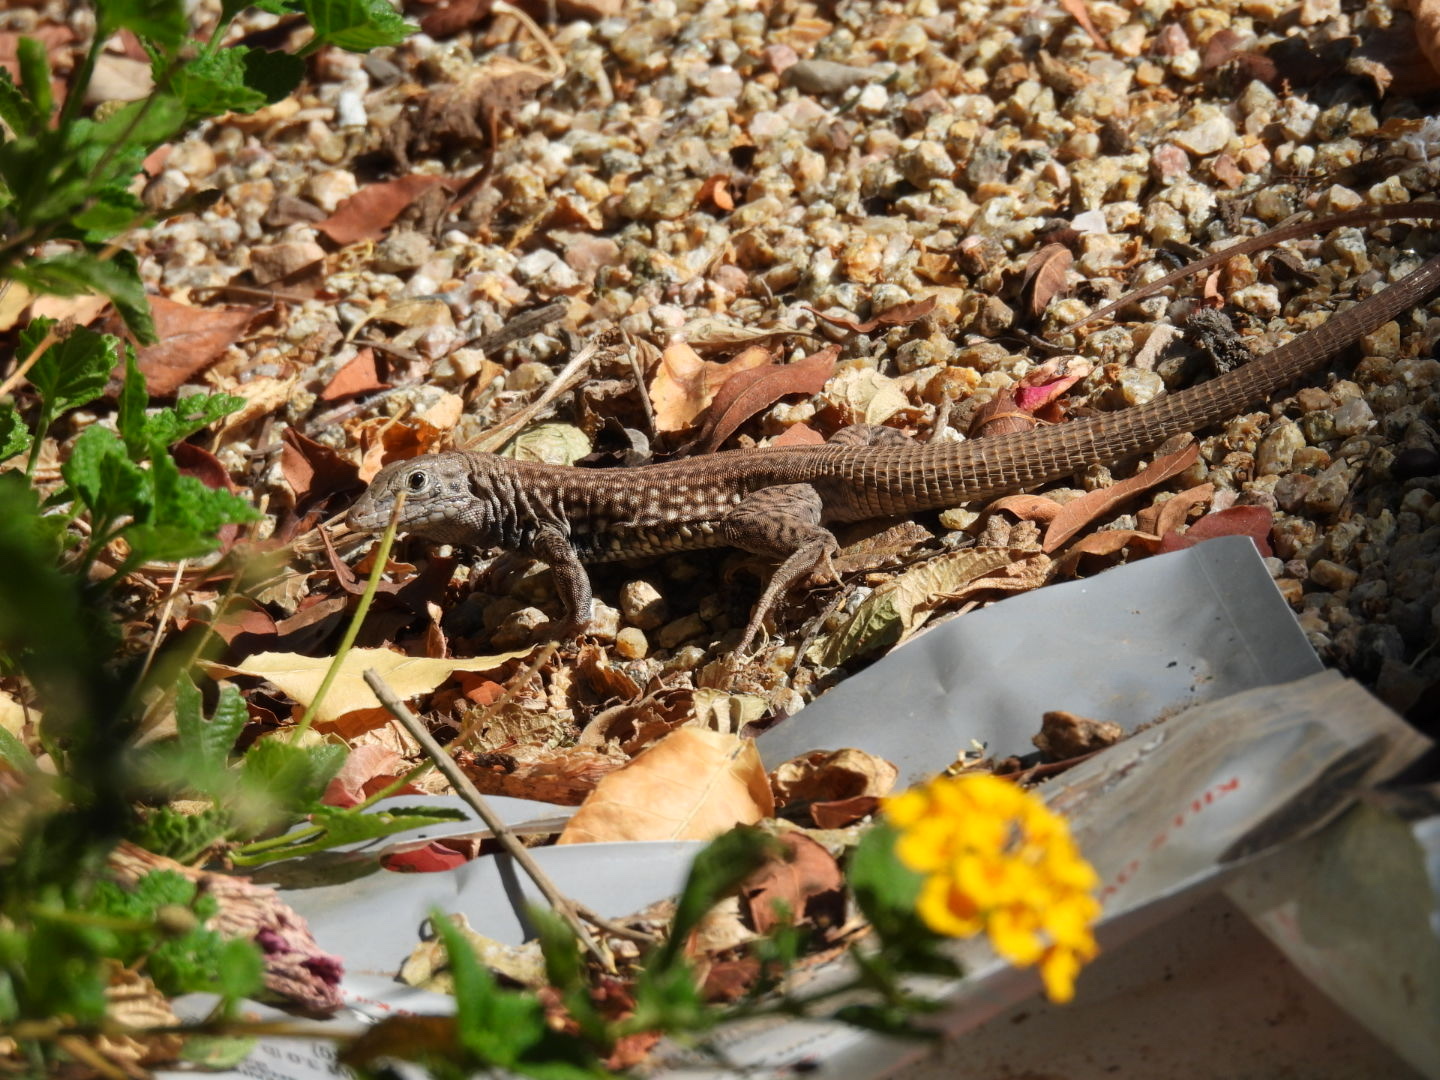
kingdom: Animalia
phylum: Chordata
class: Squamata
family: Teiidae
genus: Aspidoscelis
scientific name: Aspidoscelis tigris
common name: Tiger whiptail
